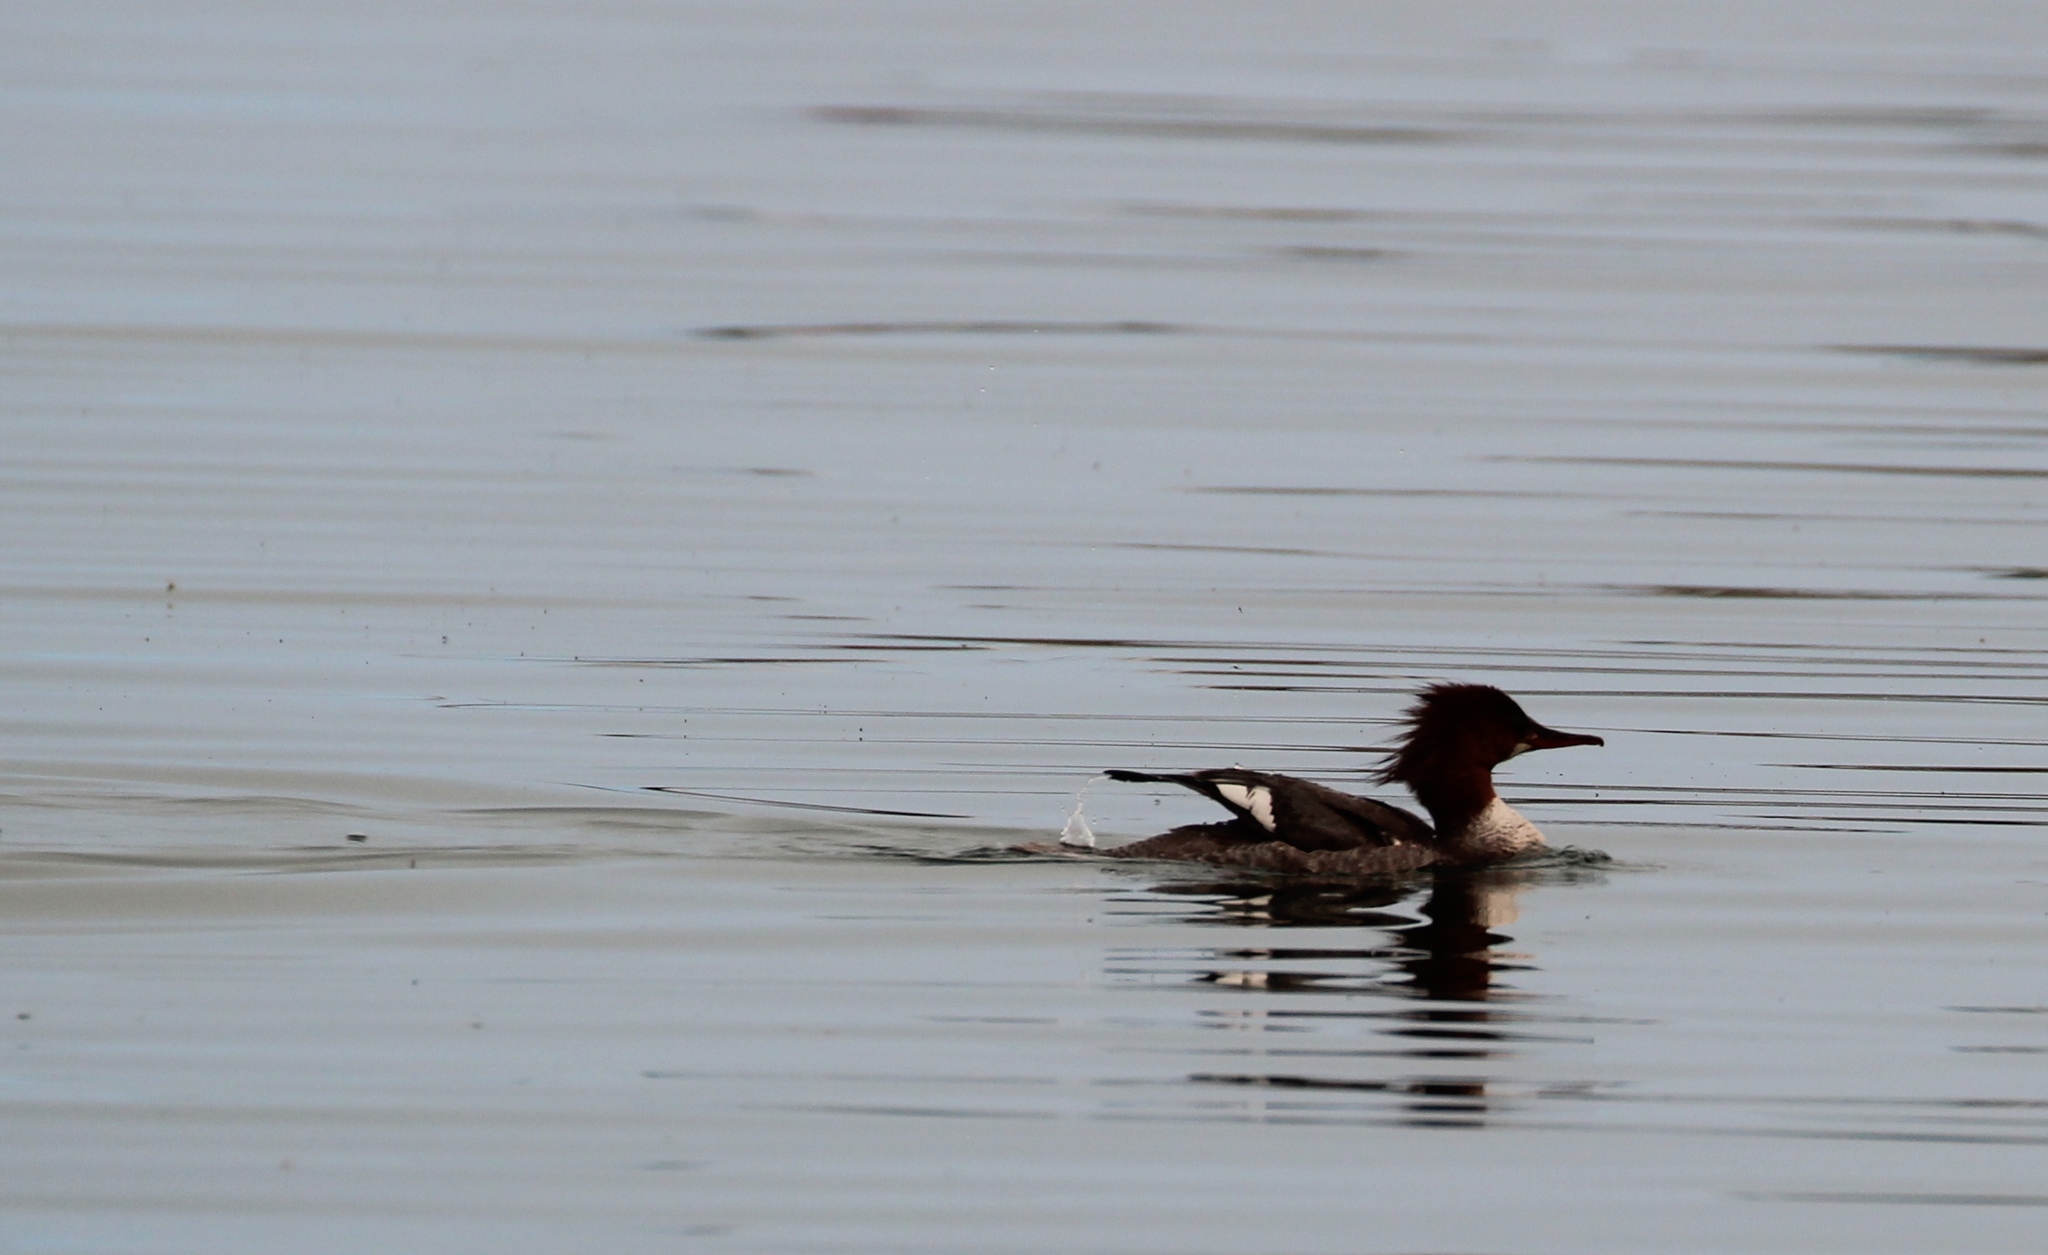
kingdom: Animalia
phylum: Chordata
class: Aves
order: Anseriformes
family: Anatidae
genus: Mergus
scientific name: Mergus merganser
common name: Common merganser
